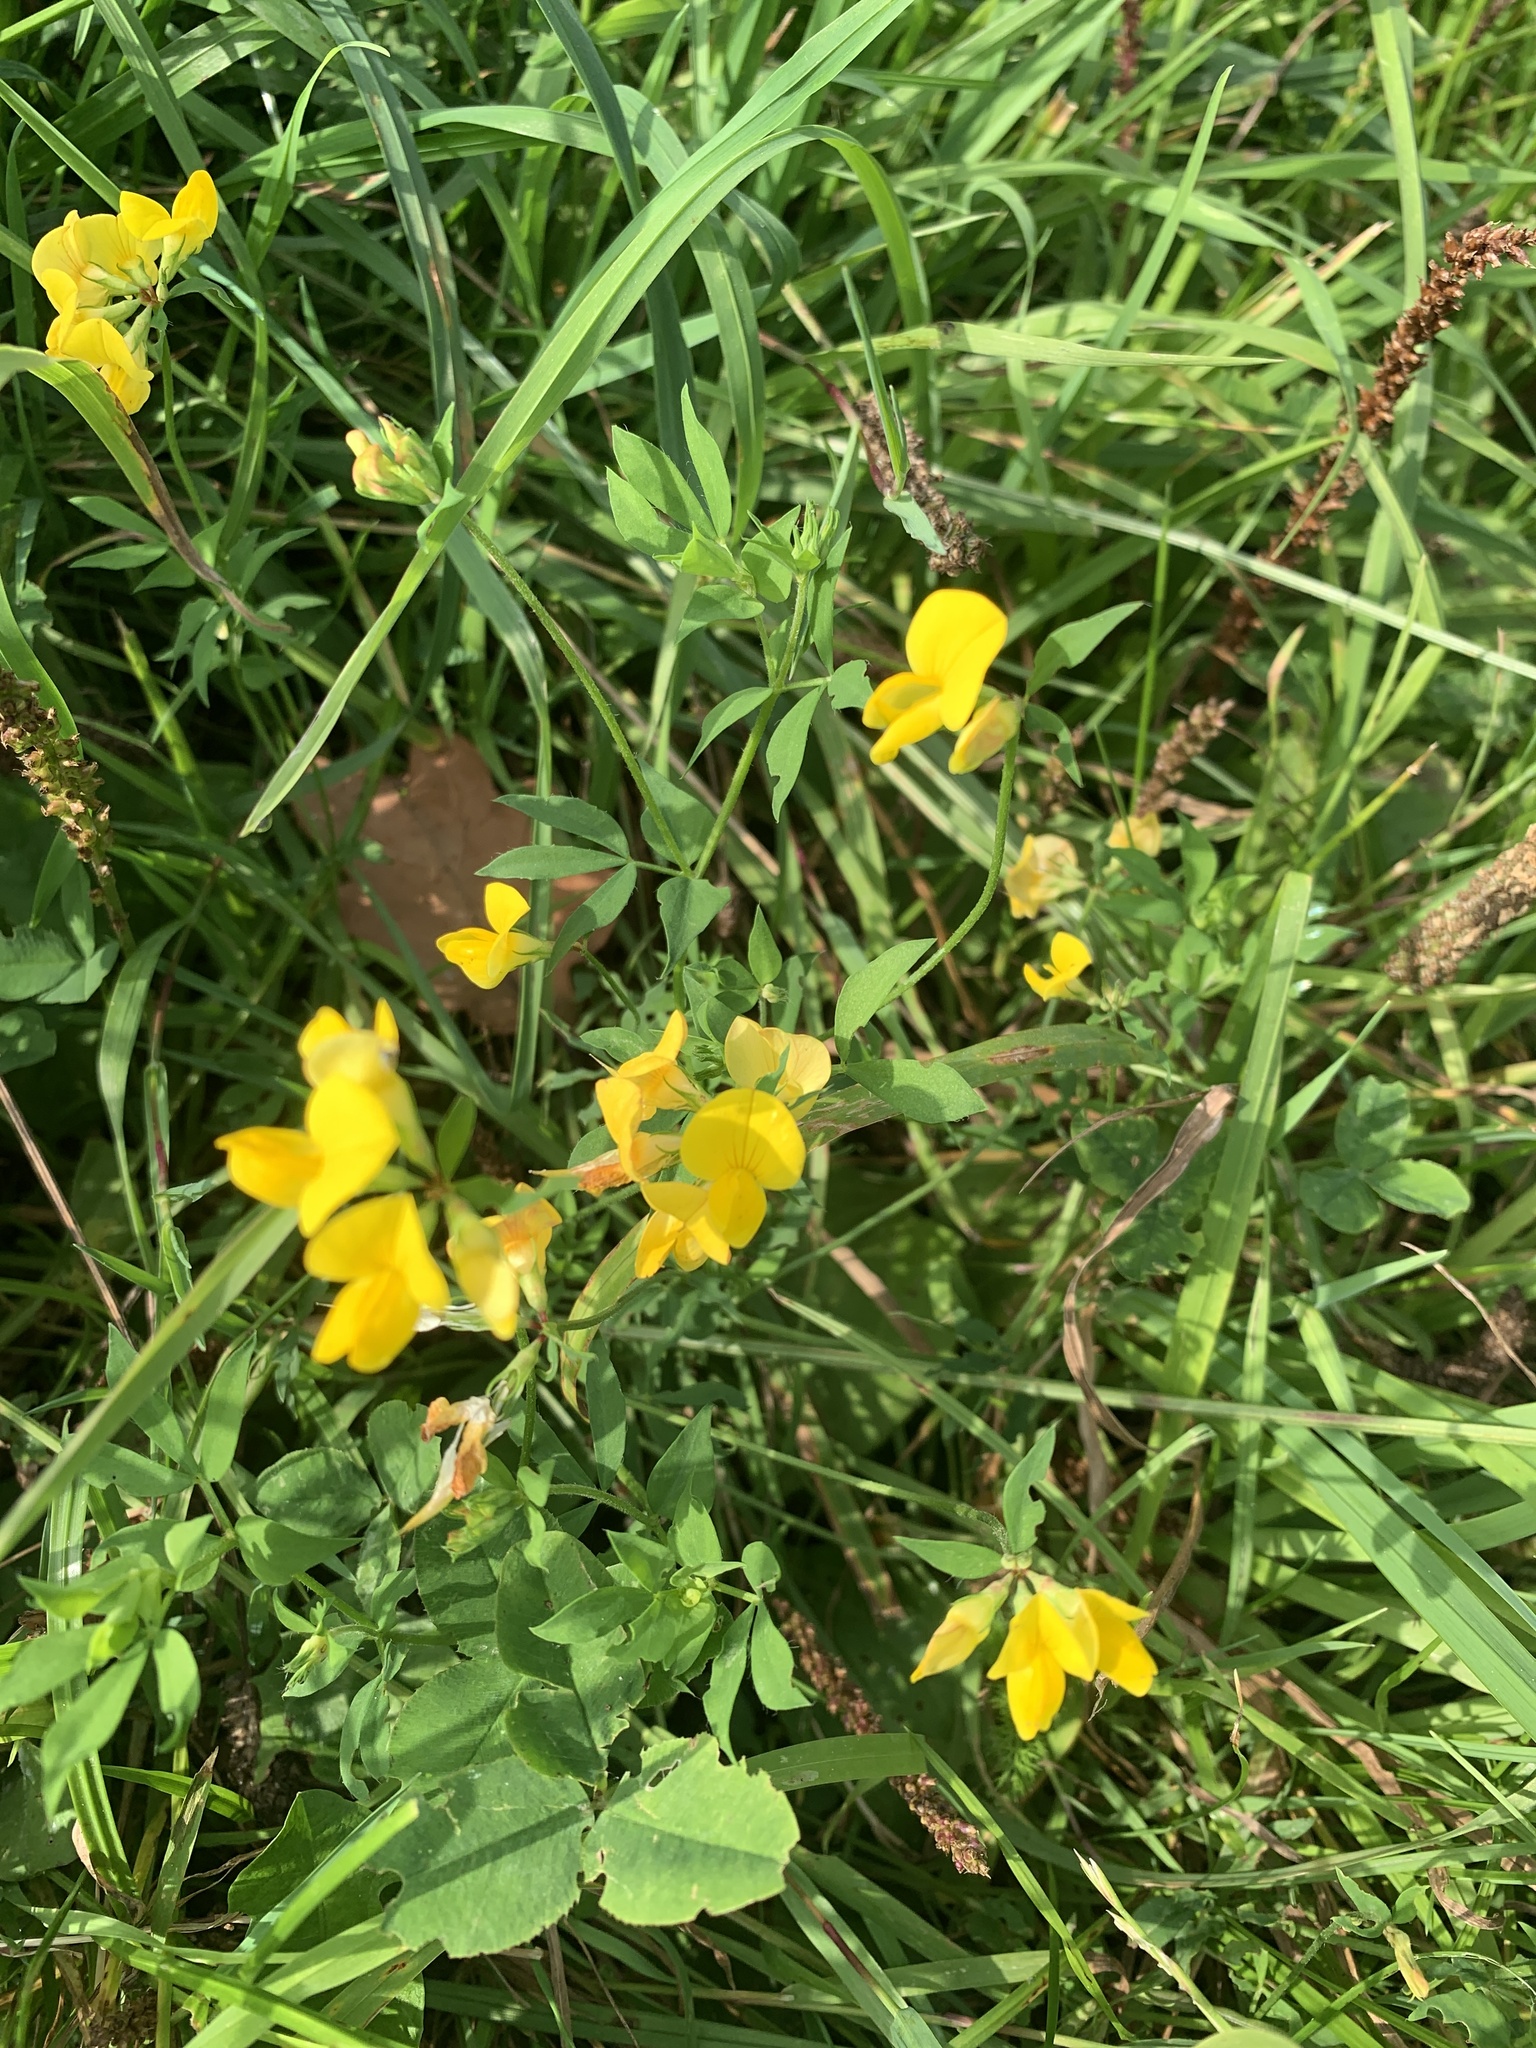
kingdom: Plantae
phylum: Tracheophyta
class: Magnoliopsida
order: Fabales
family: Fabaceae
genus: Lotus
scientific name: Lotus corniculatus
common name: Common bird's-foot-trefoil
